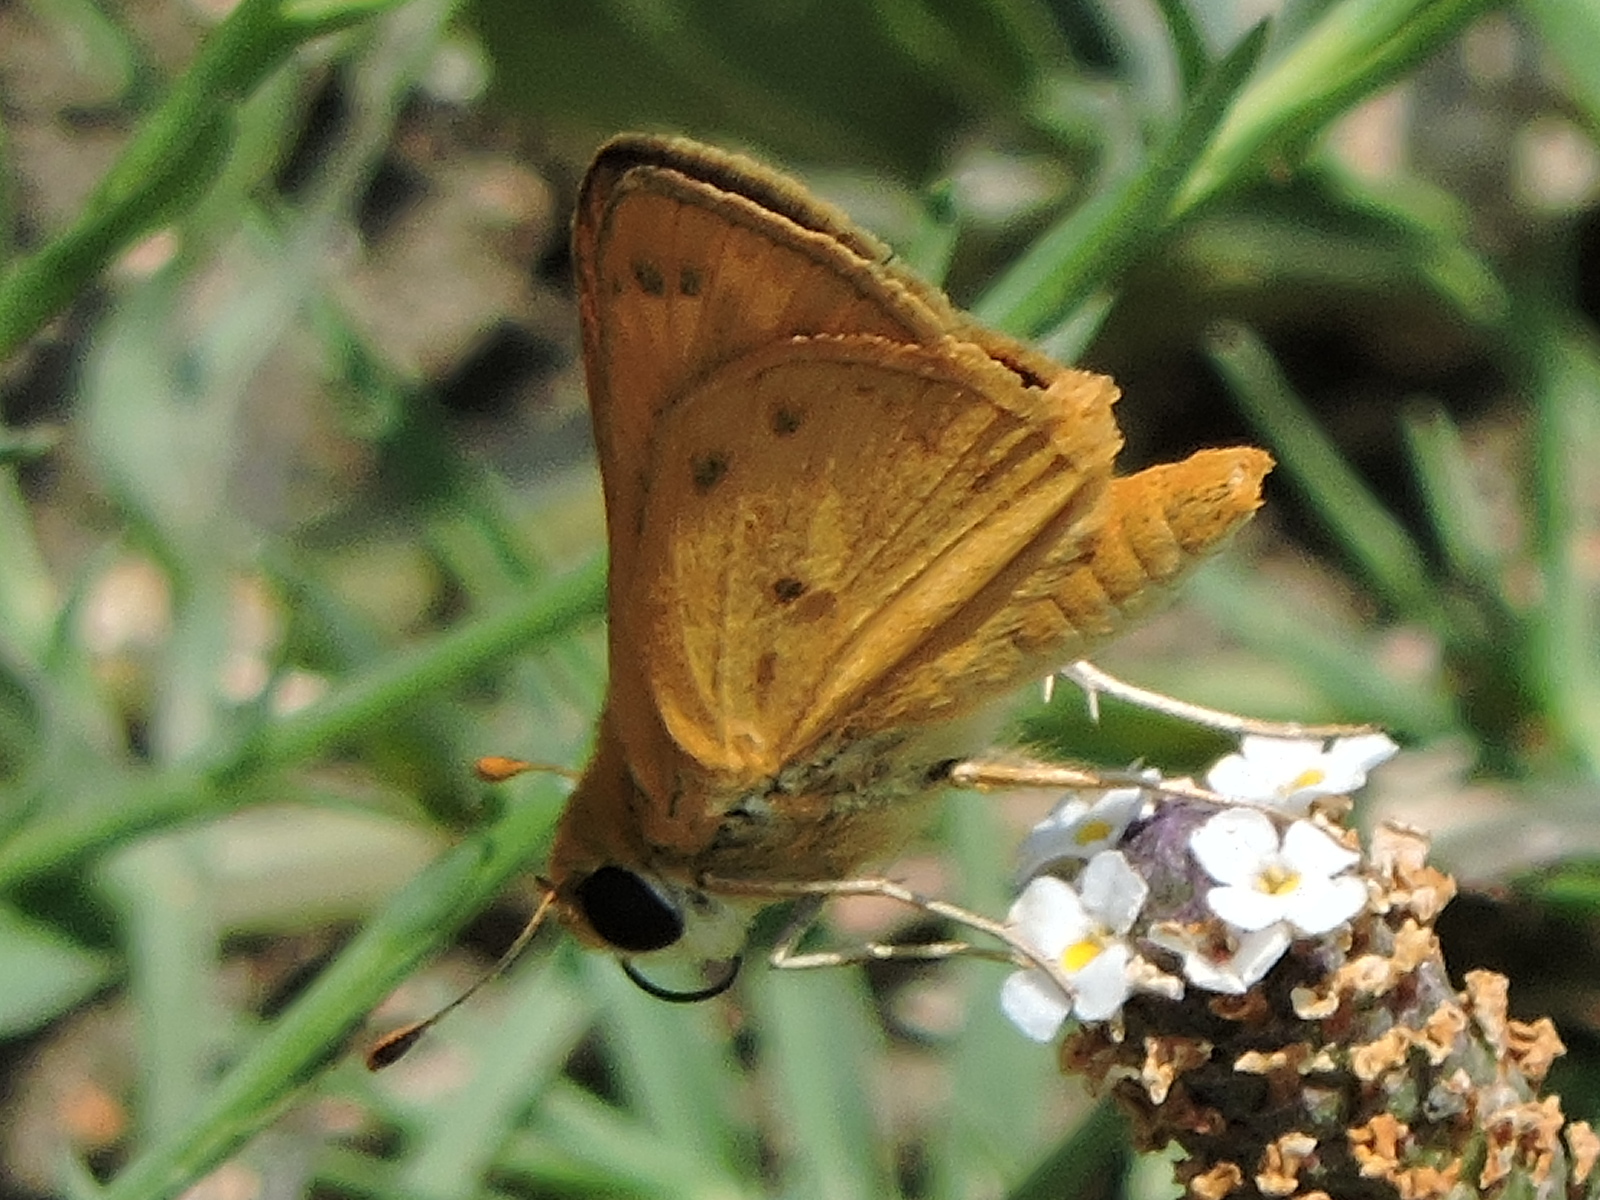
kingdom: Animalia
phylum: Arthropoda
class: Insecta
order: Lepidoptera
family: Hesperiidae
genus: Hylephila
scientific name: Hylephila phyleus
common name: Fiery skipper
